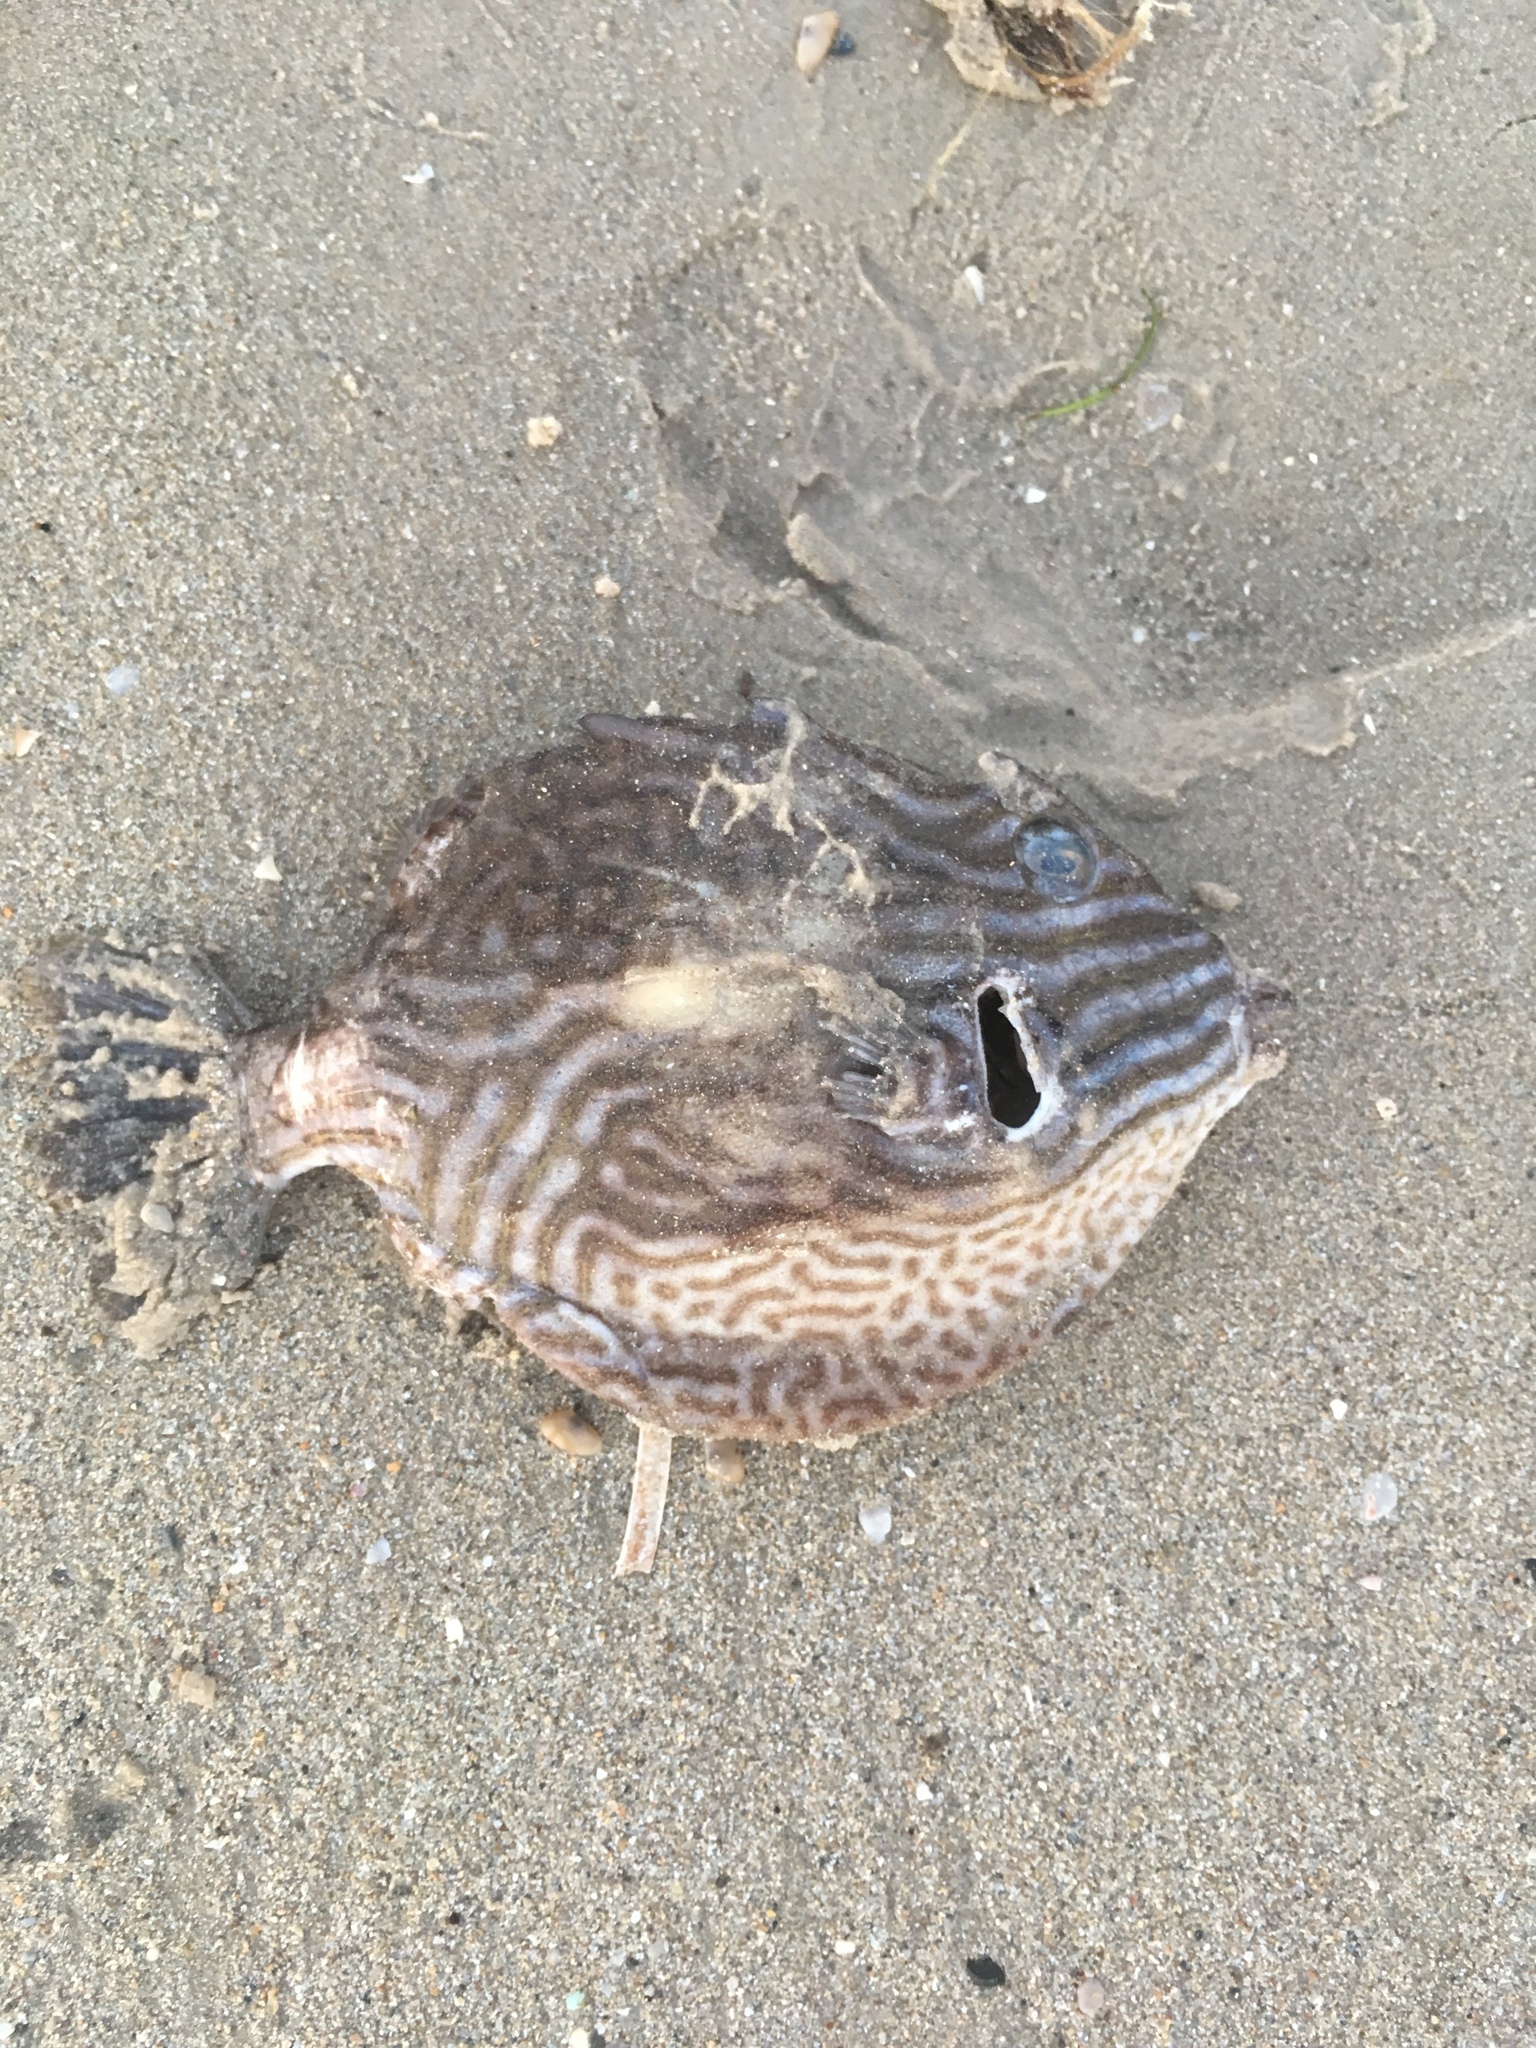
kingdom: Animalia
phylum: Chordata
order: Tetraodontiformes
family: Aracanidae
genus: Aracana
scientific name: Aracana aurita
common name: Shaw’s cowfish
